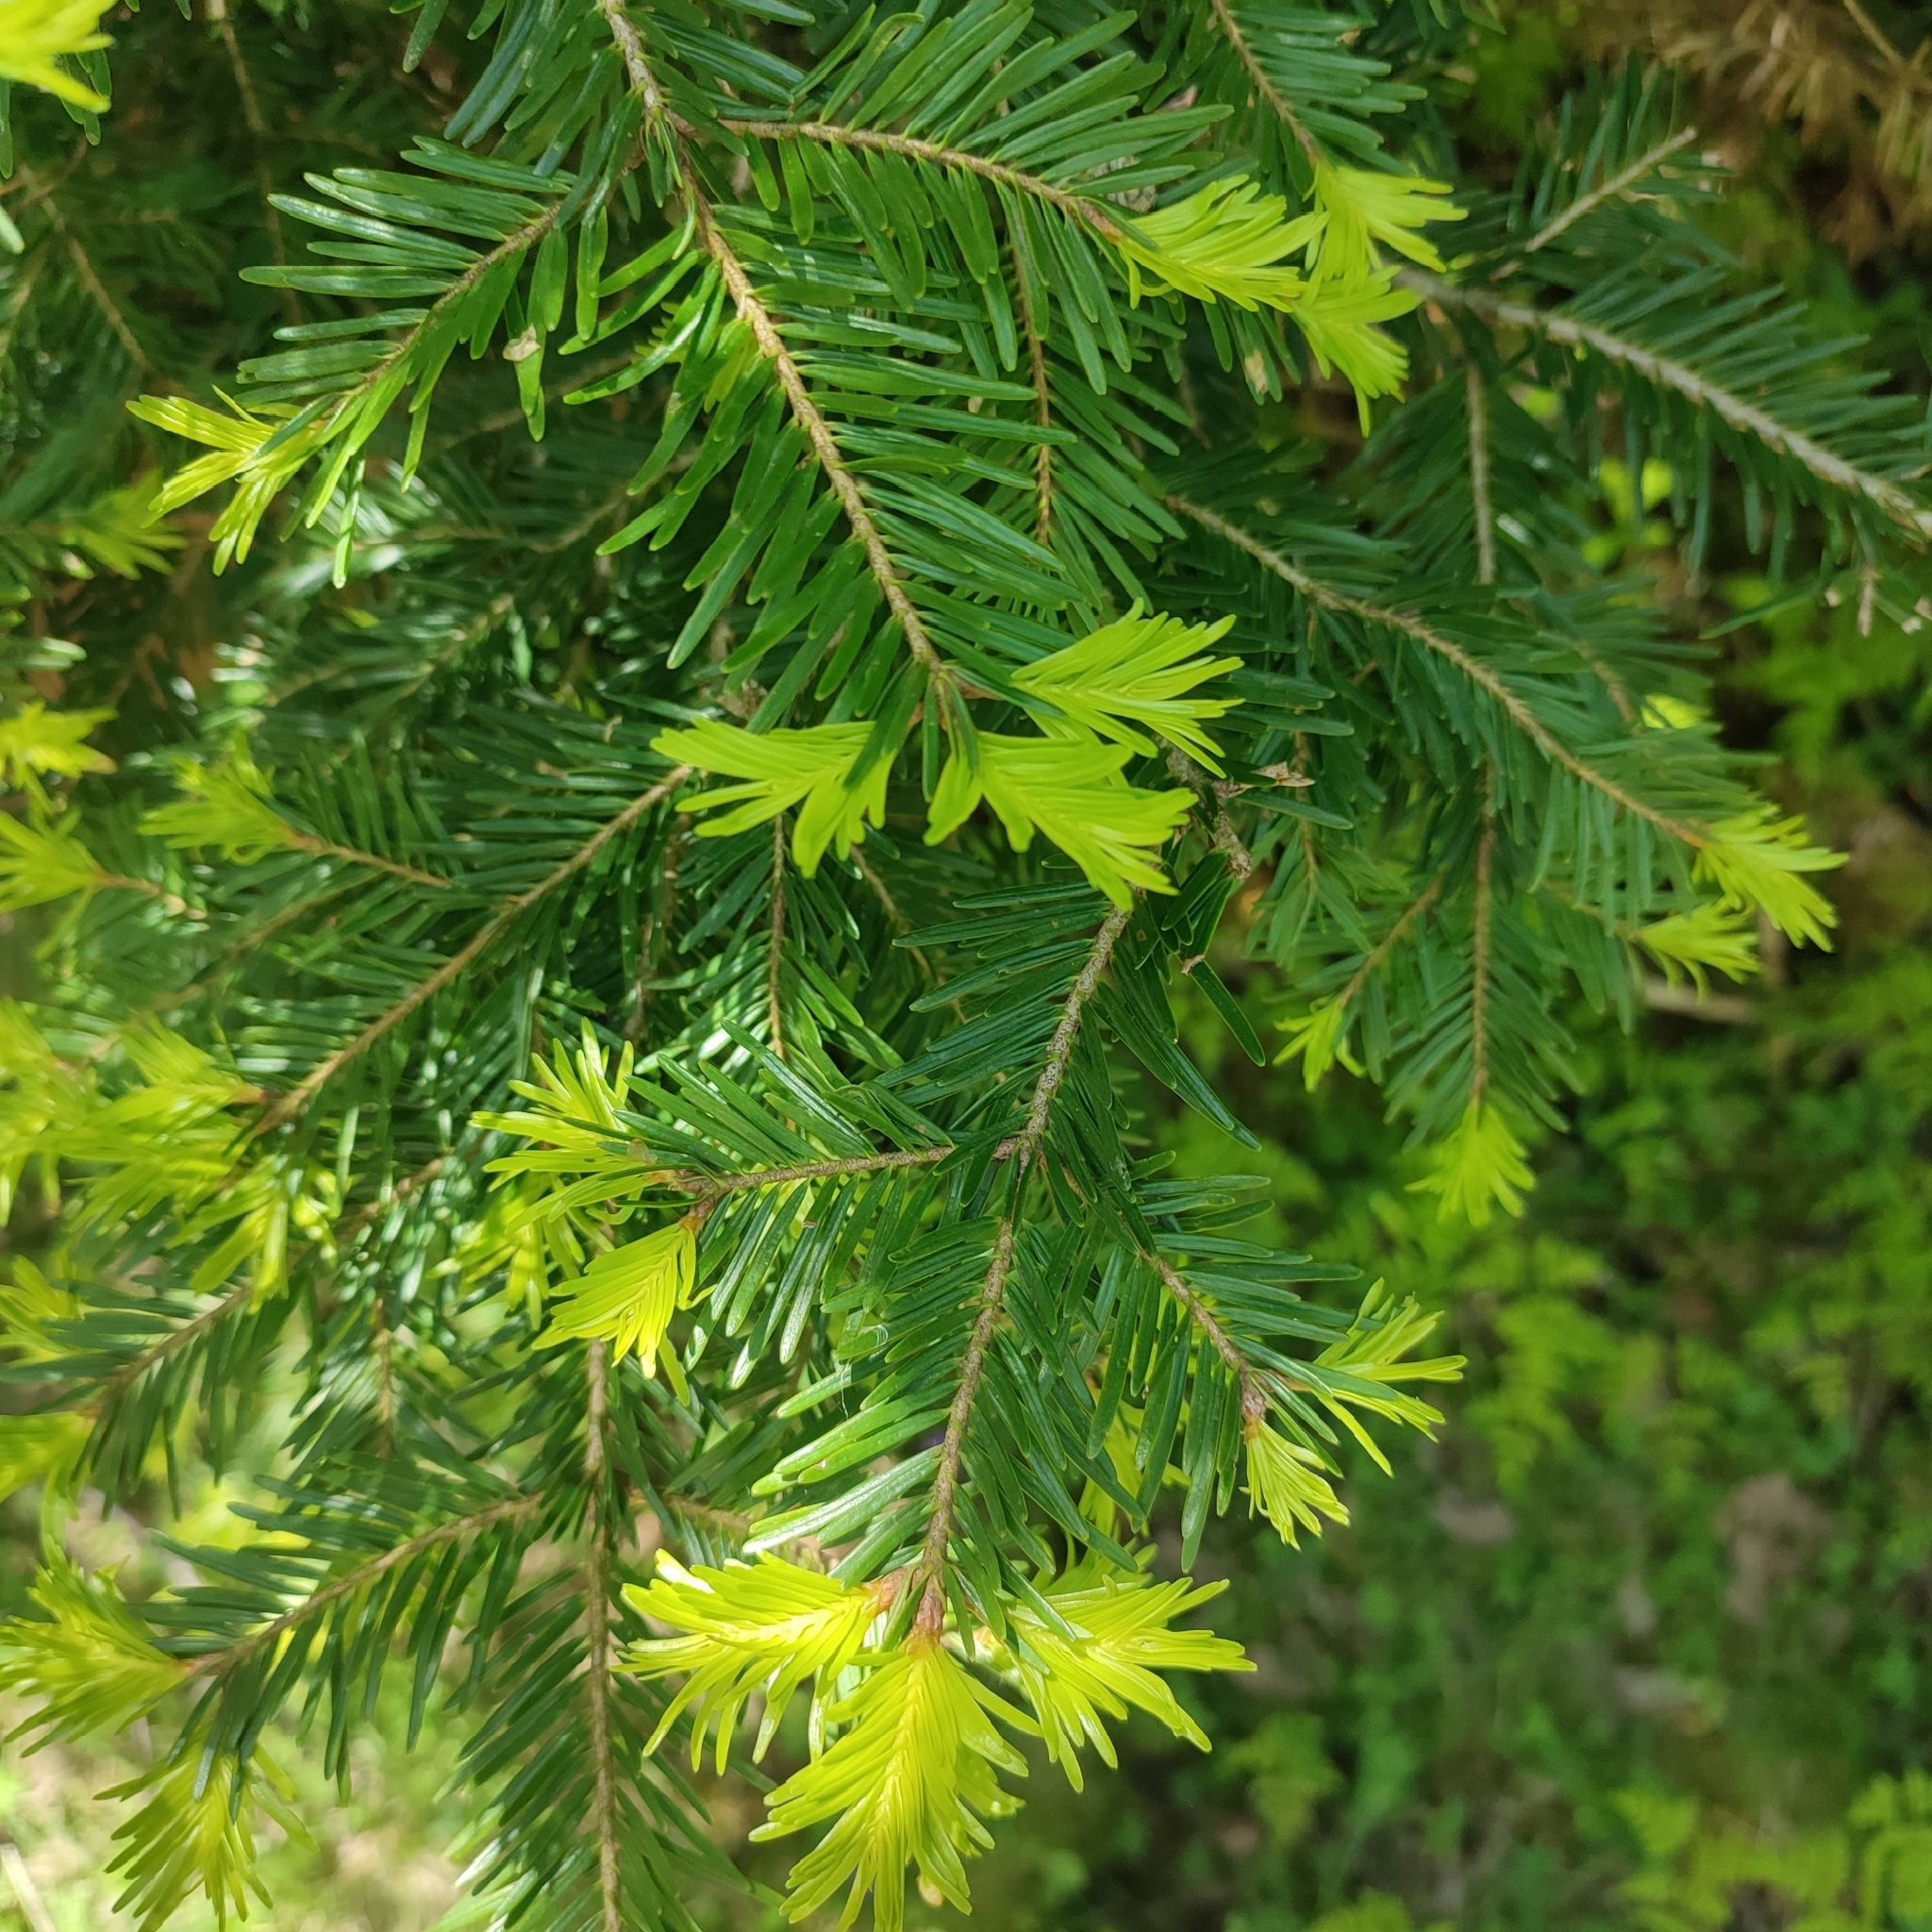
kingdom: Plantae
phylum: Tracheophyta
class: Pinopsida
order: Pinales
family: Pinaceae
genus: Abies
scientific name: Abies alba
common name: Silver fir
